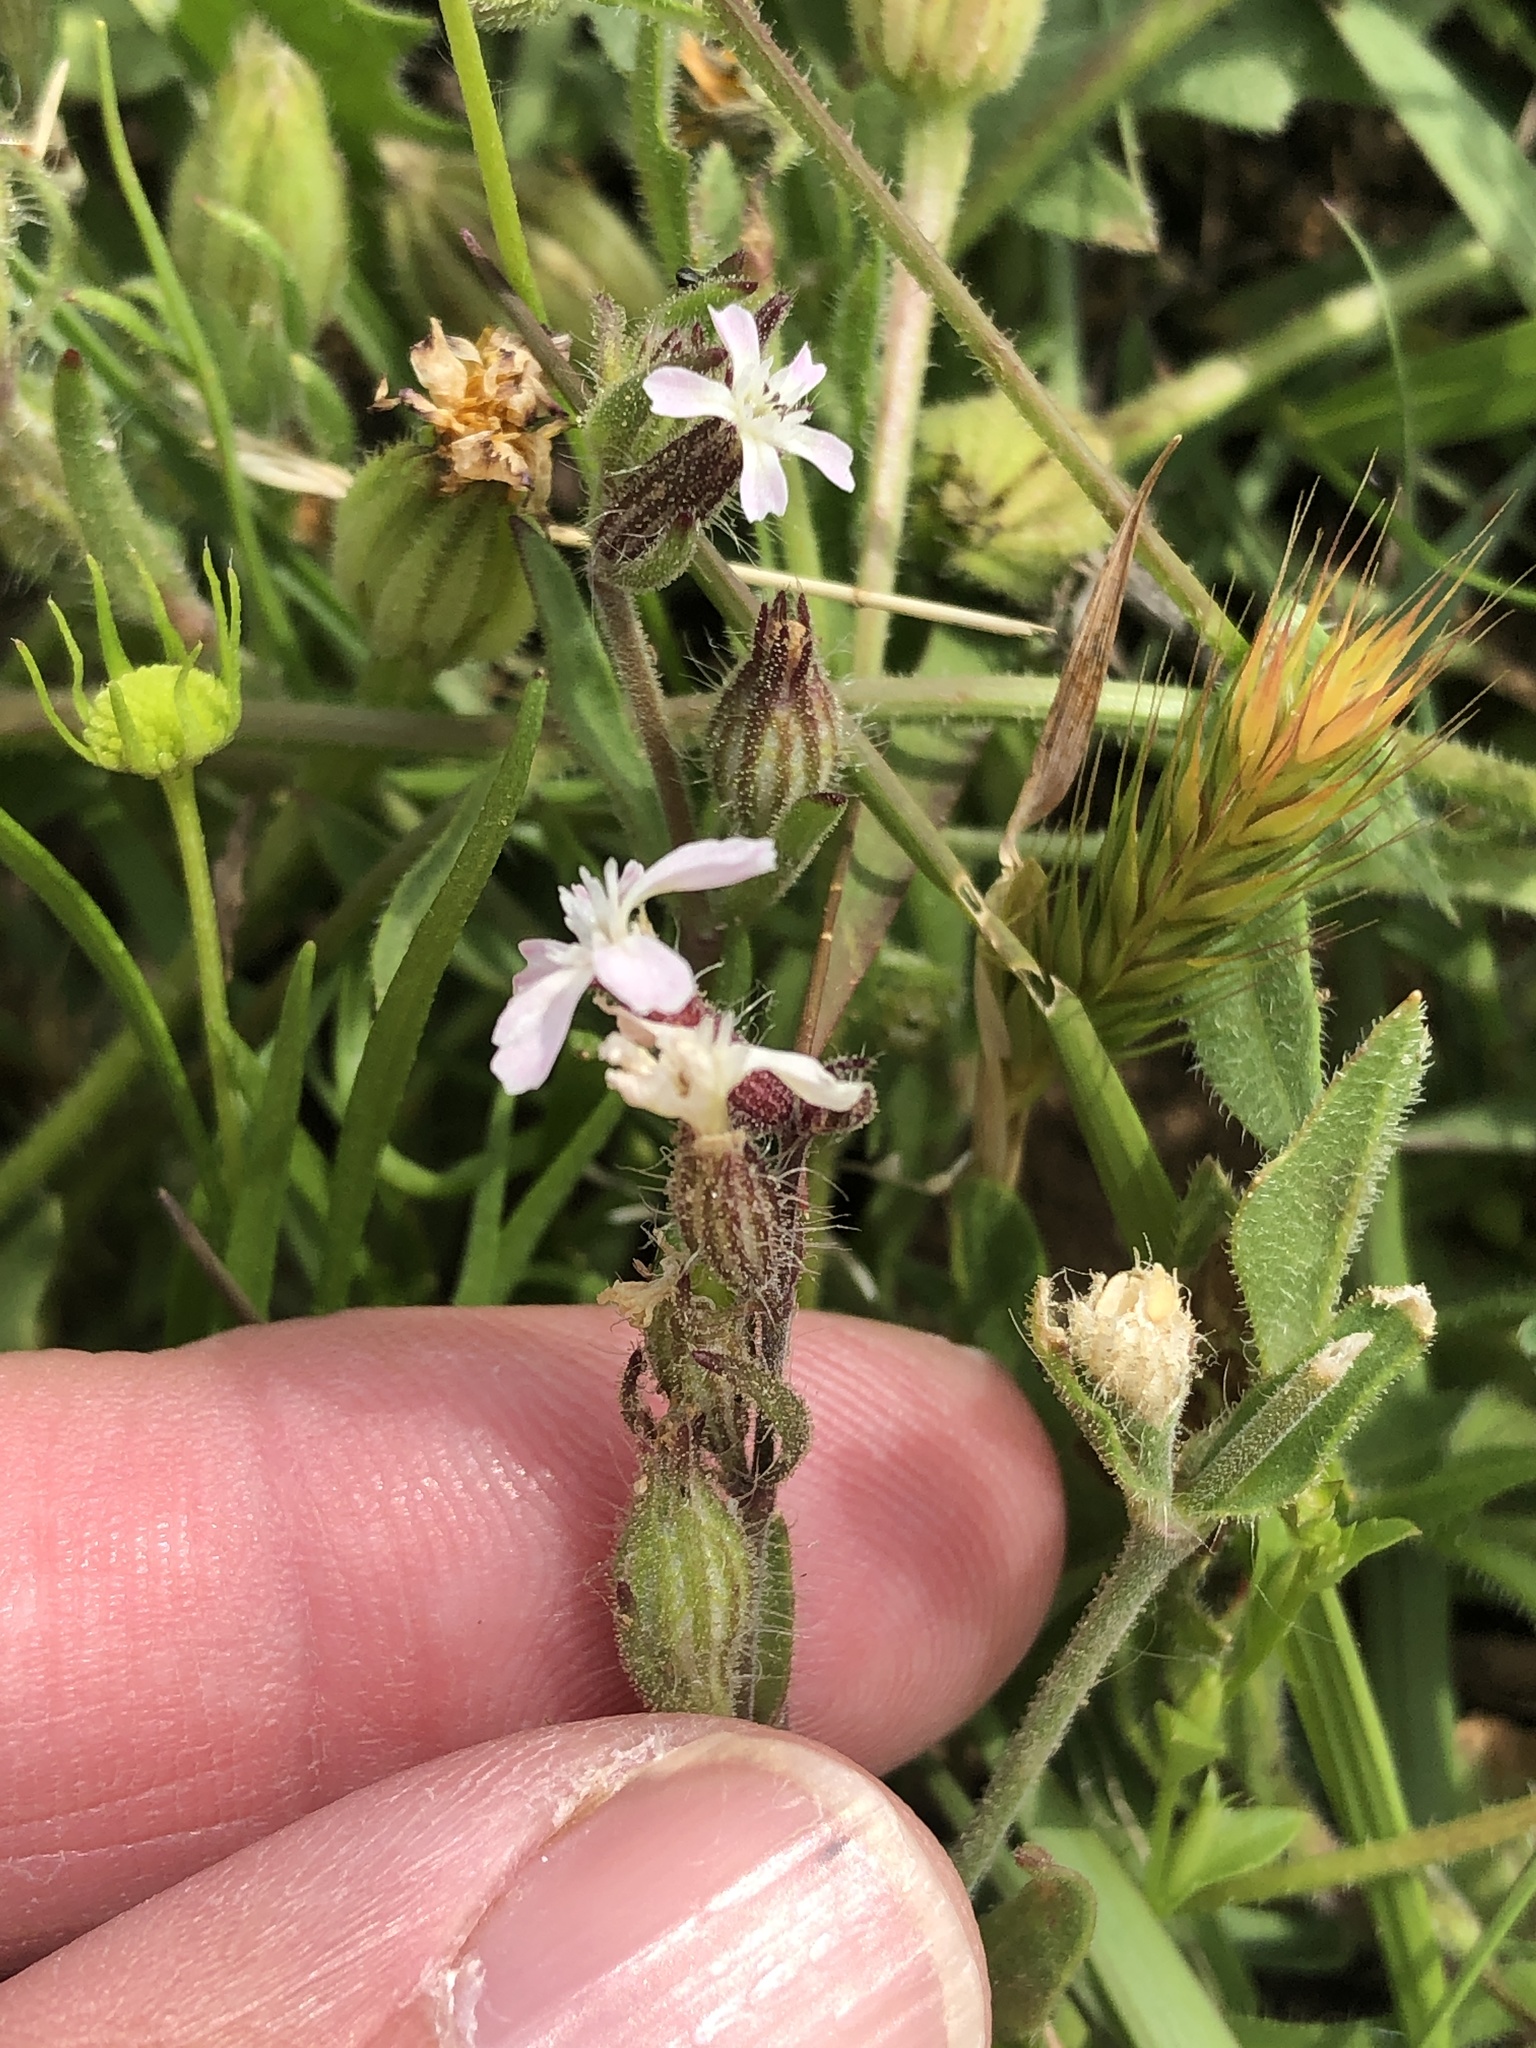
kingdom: Plantae
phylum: Tracheophyta
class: Magnoliopsida
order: Caryophyllales
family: Caryophyllaceae
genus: Silene
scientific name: Silene gallica
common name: Small-flowered catchfly
